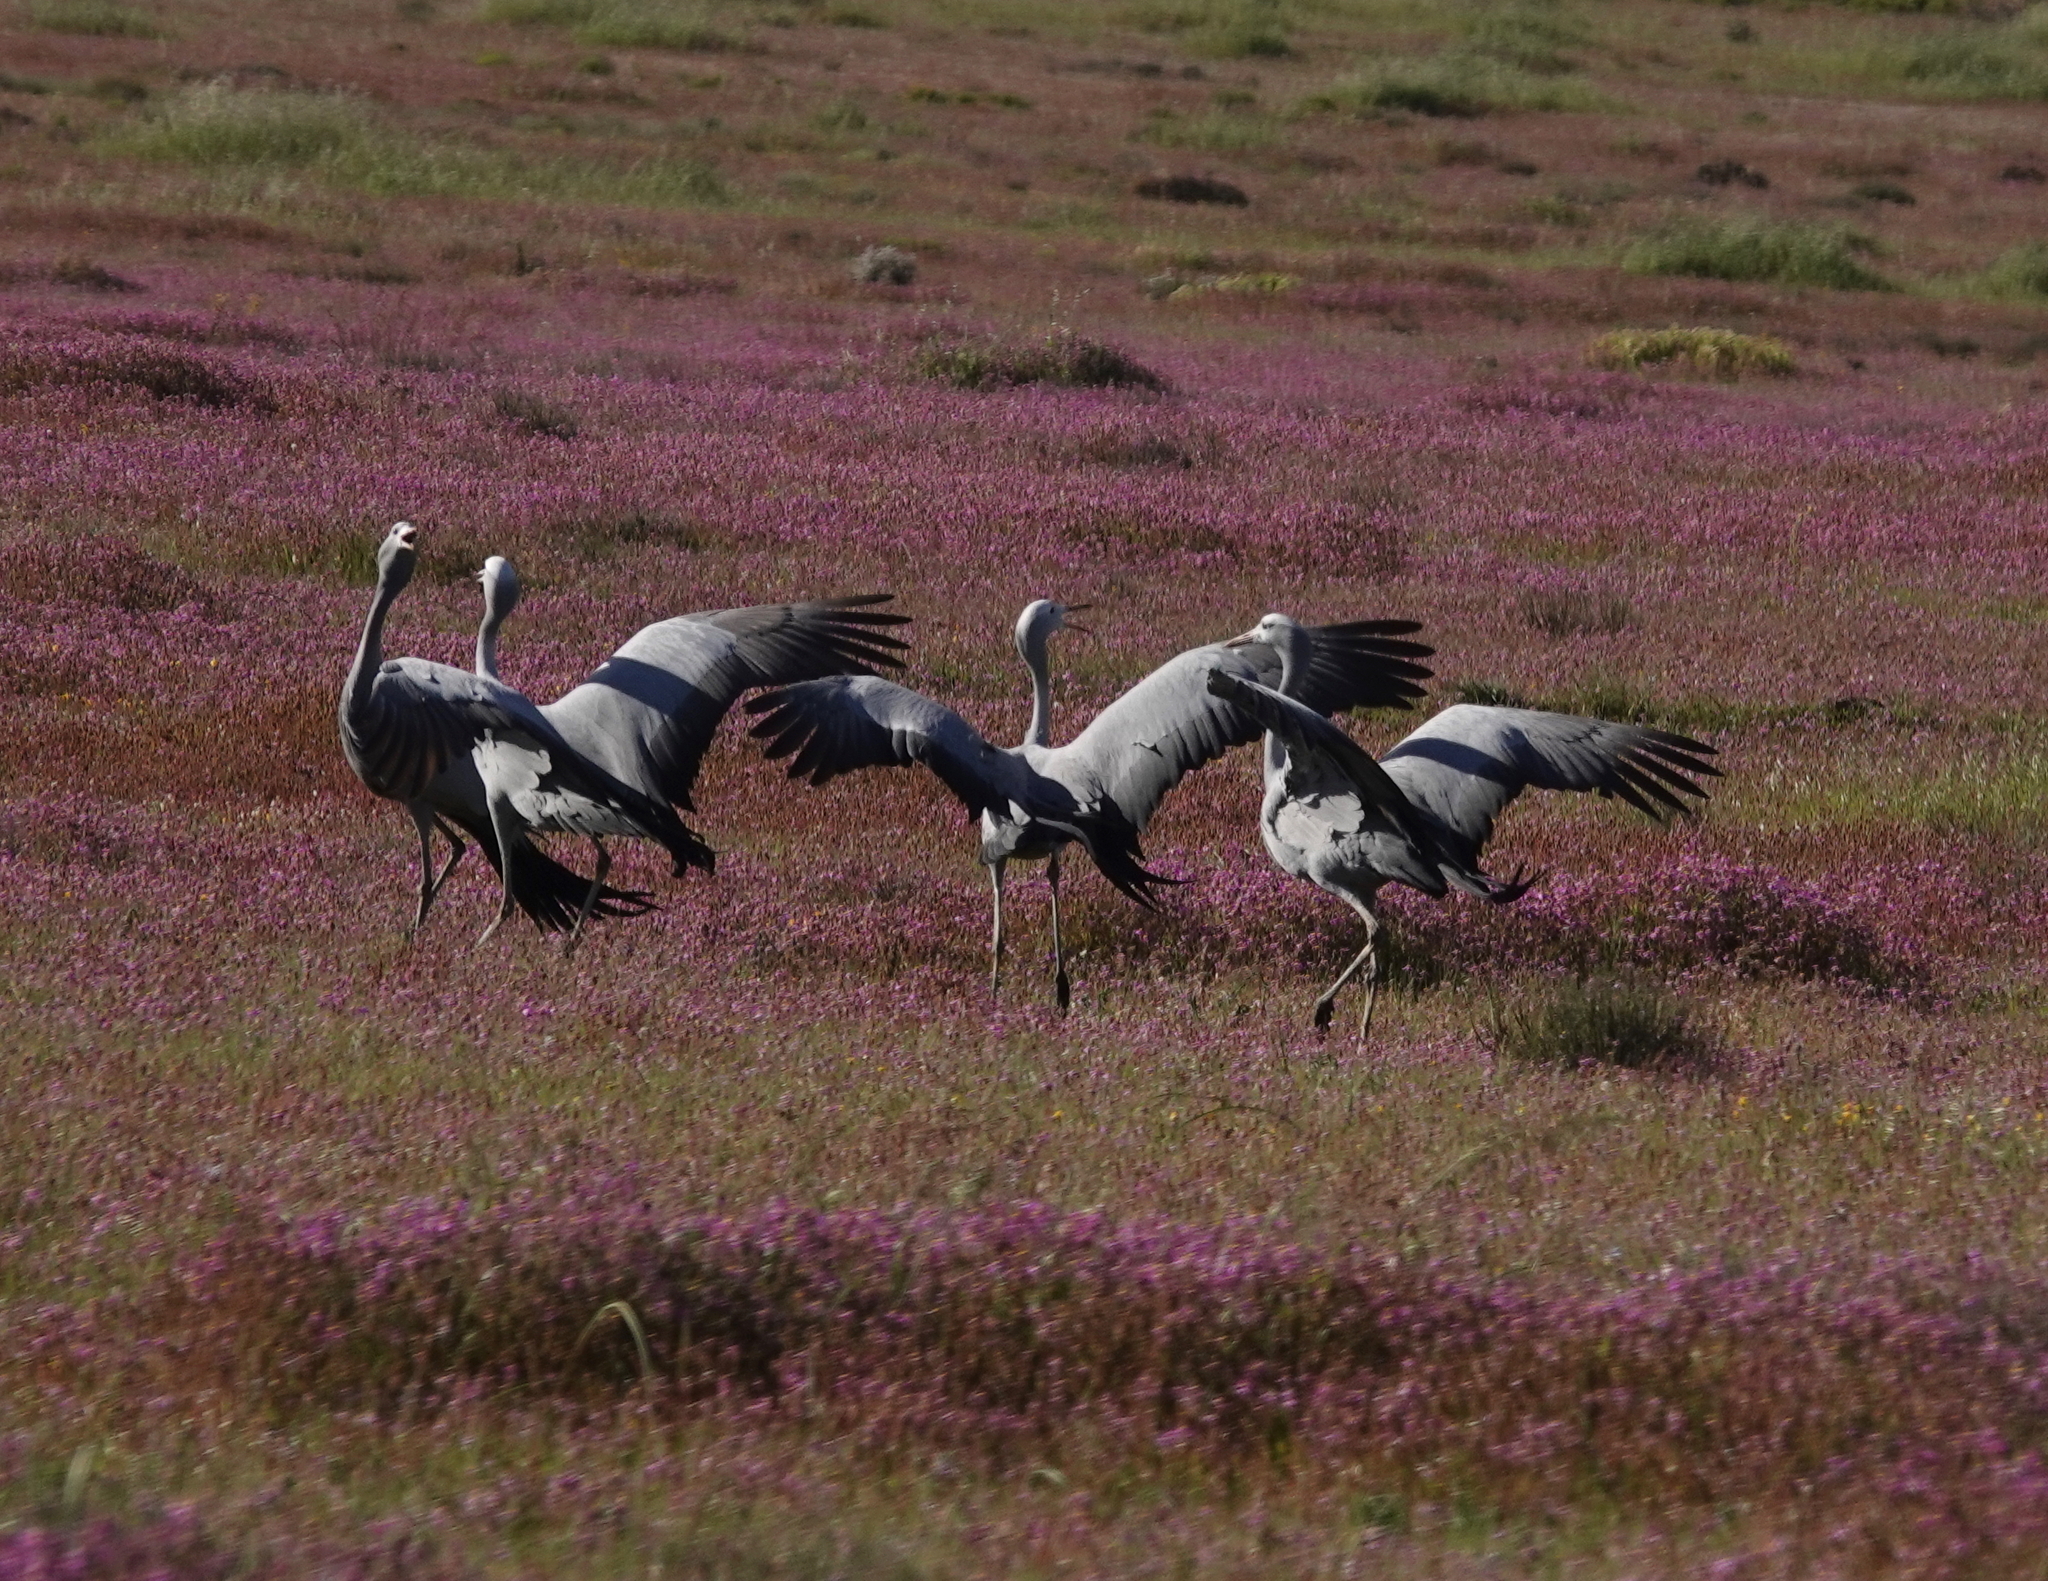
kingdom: Animalia
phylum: Chordata
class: Aves
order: Gruiformes
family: Gruidae
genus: Anthropoides
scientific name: Anthropoides paradiseus
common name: Blue crane
